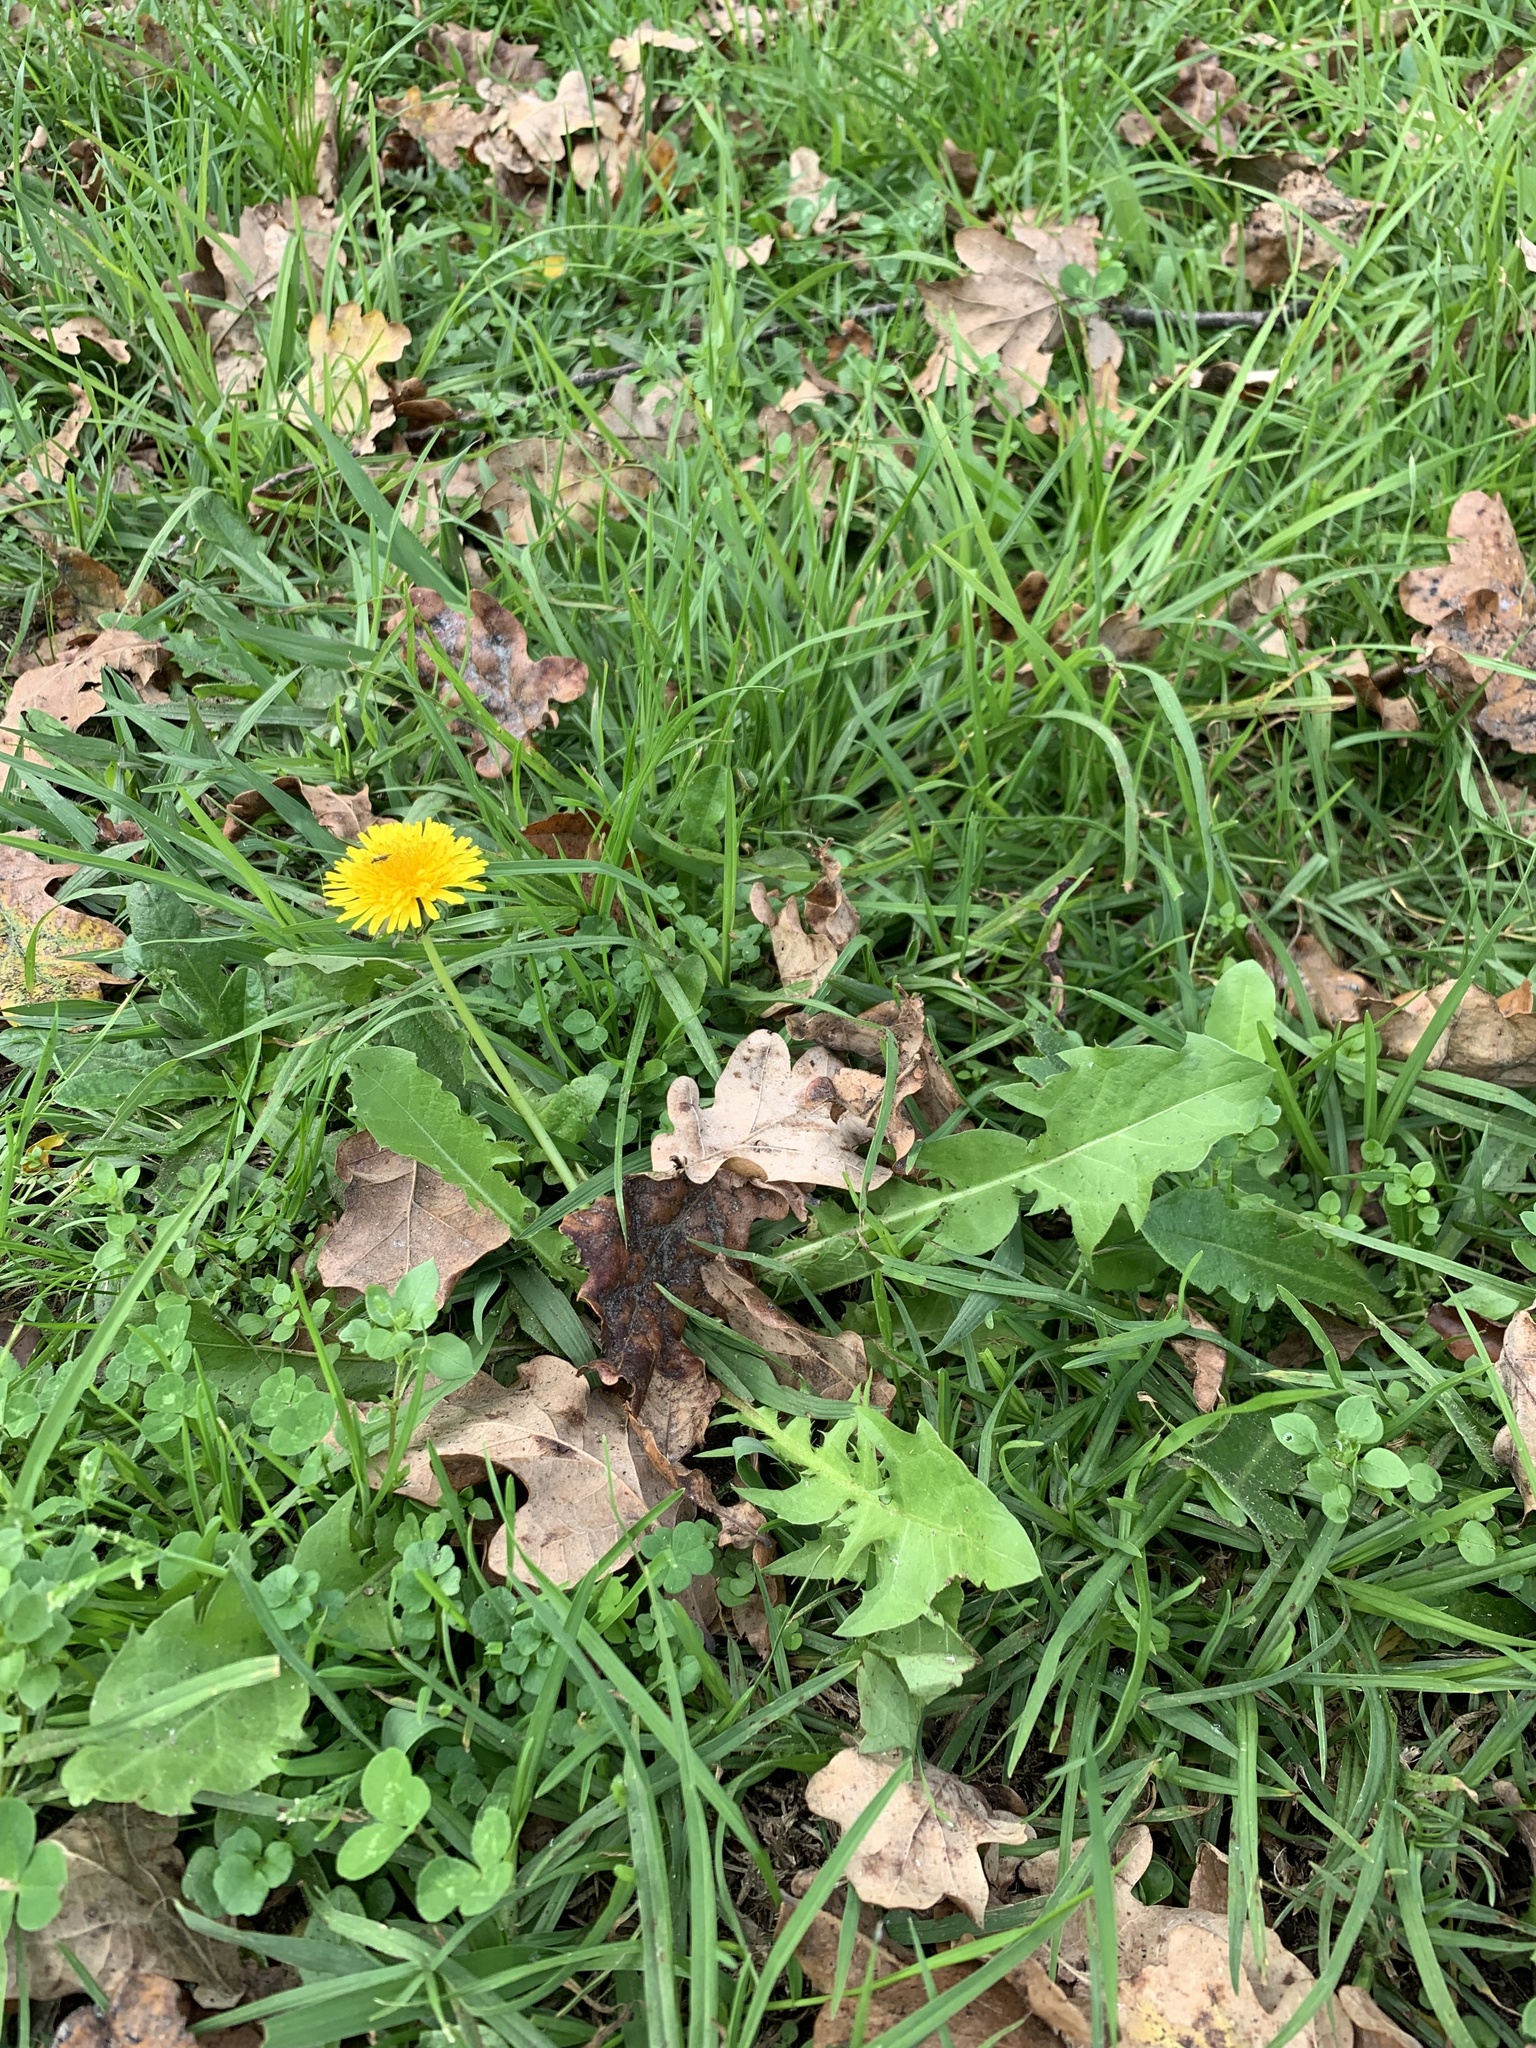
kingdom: Plantae
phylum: Tracheophyta
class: Magnoliopsida
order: Asterales
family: Asteraceae
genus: Taraxacum
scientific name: Taraxacum officinale
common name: Common dandelion
